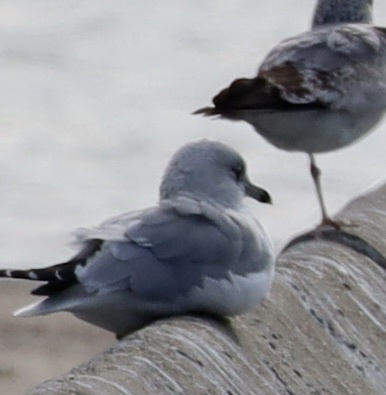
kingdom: Animalia
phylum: Chordata
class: Aves
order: Charadriiformes
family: Laridae
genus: Larus
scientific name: Larus delawarensis
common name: Ring-billed gull
